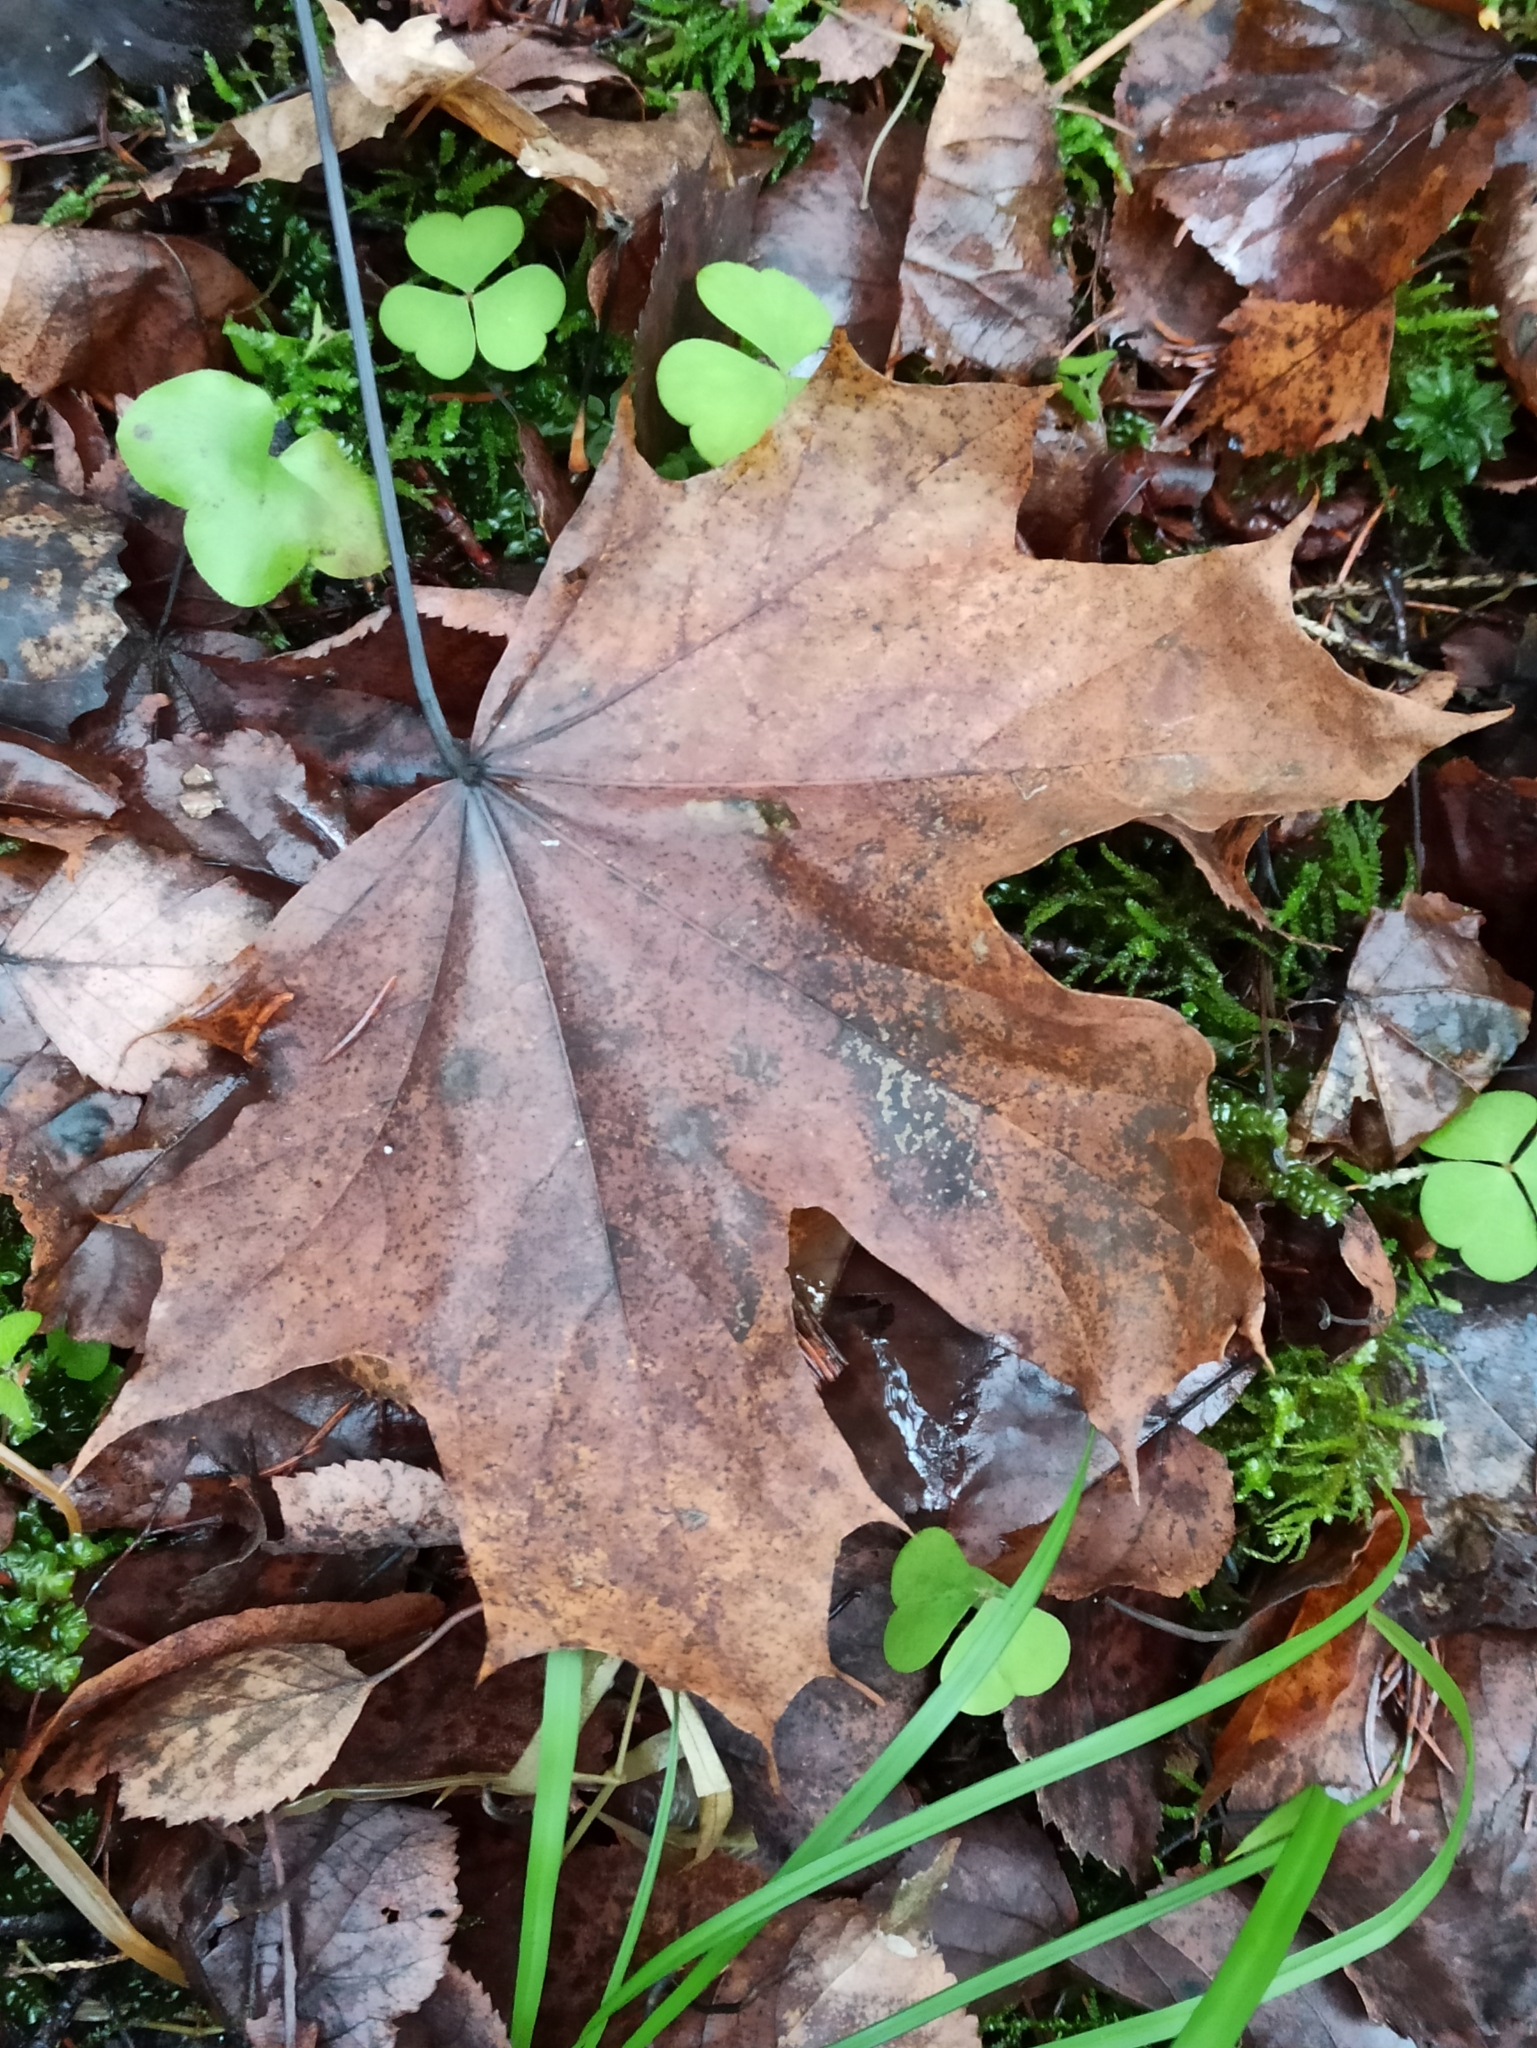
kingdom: Plantae
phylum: Tracheophyta
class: Magnoliopsida
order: Sapindales
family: Sapindaceae
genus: Acer
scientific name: Acer platanoides
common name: Norway maple
